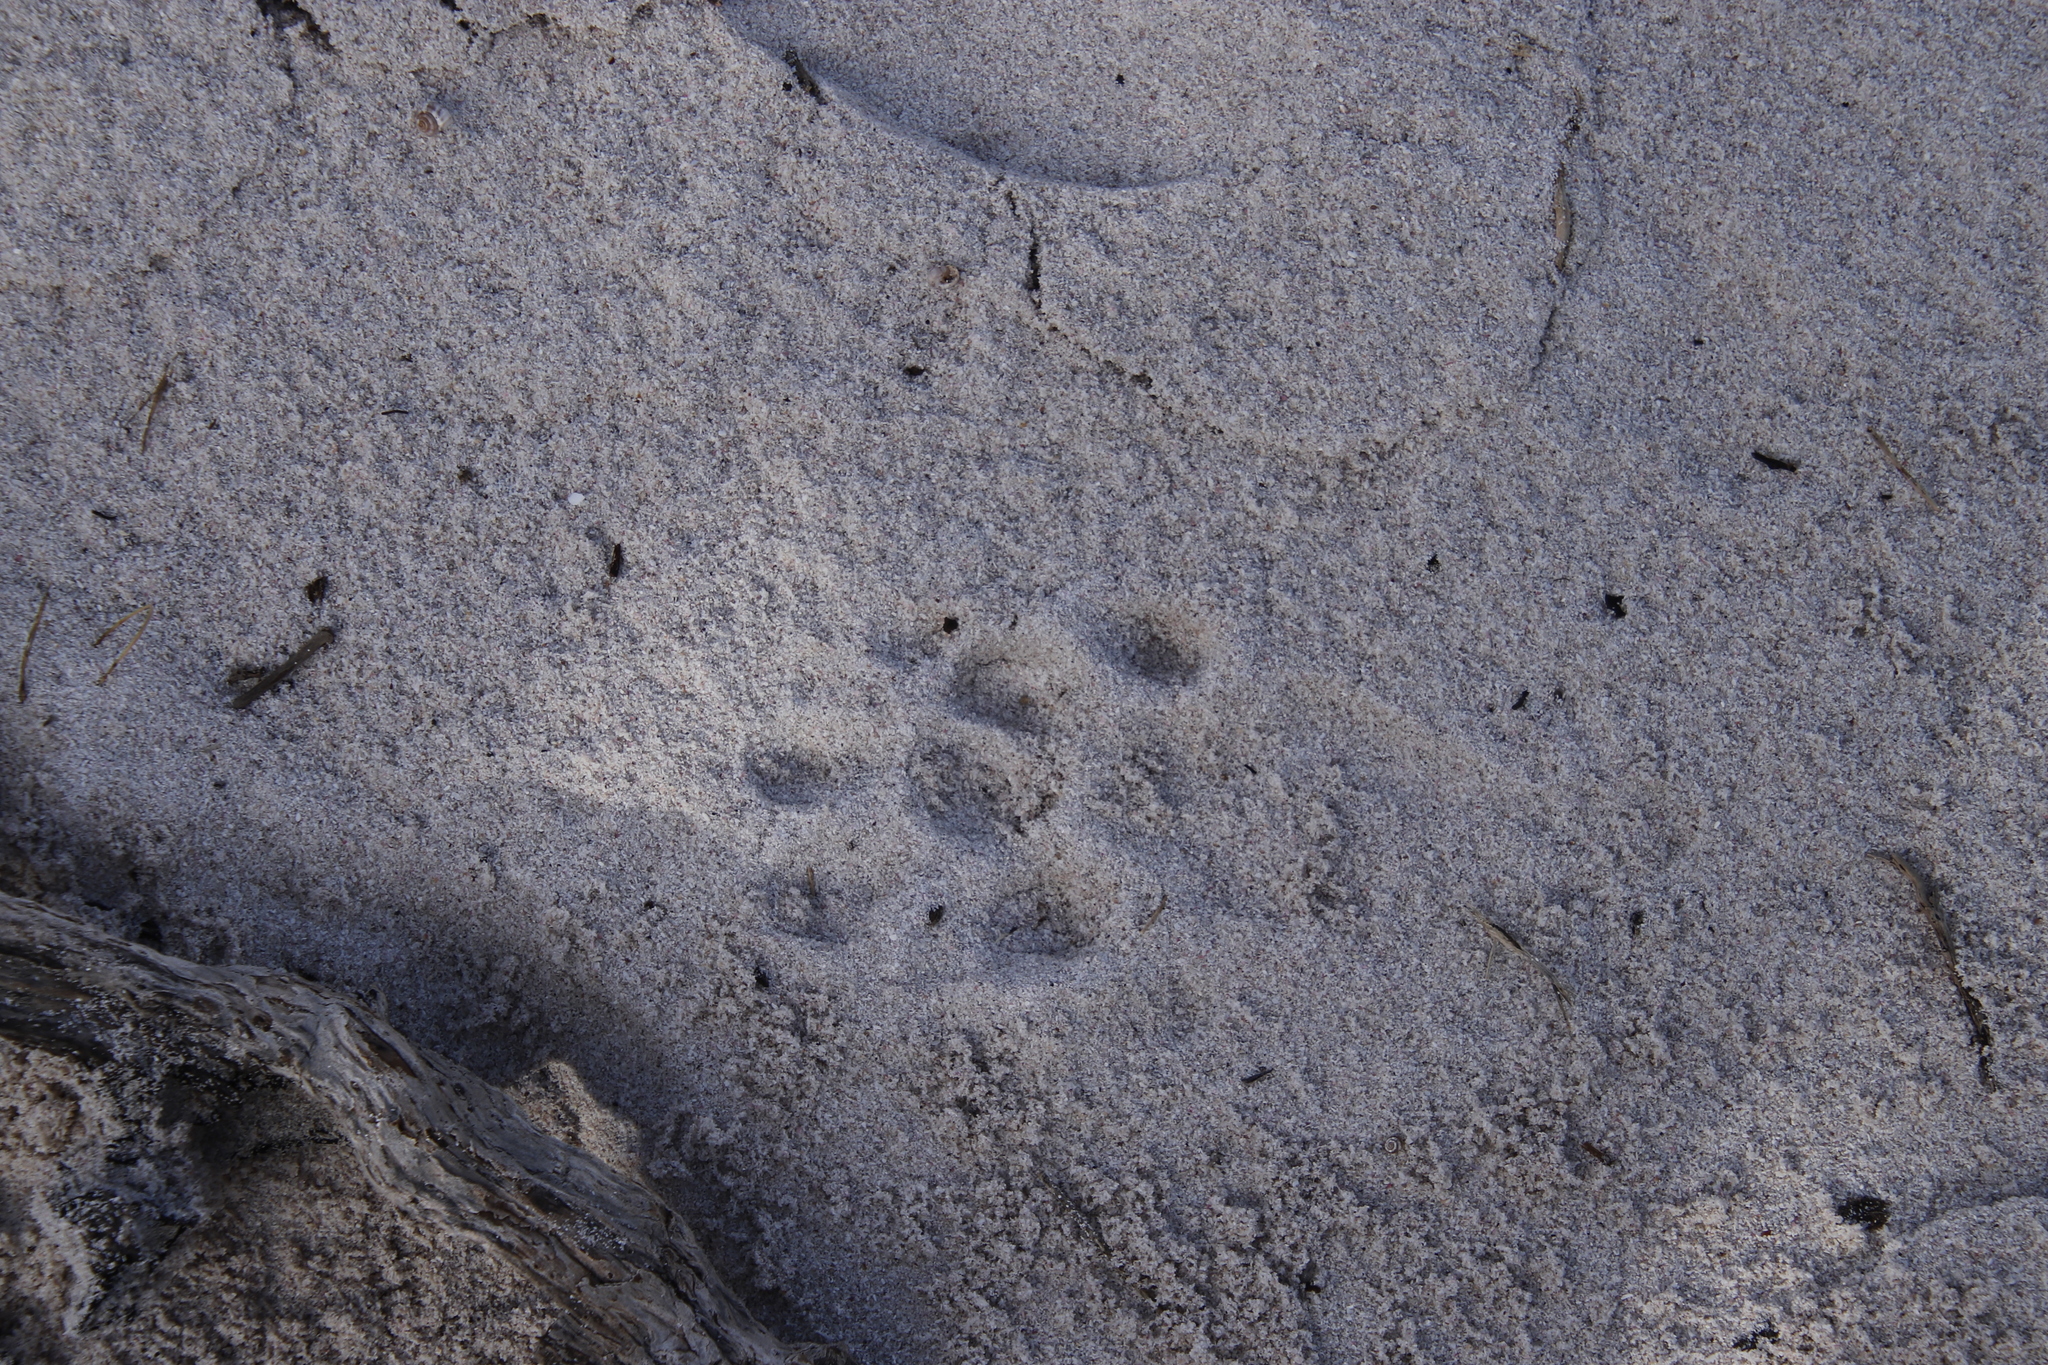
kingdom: Animalia
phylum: Chordata
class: Mammalia
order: Carnivora
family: Mustelidae
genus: Aonyx
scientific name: Aonyx capensis
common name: African clawless otter
